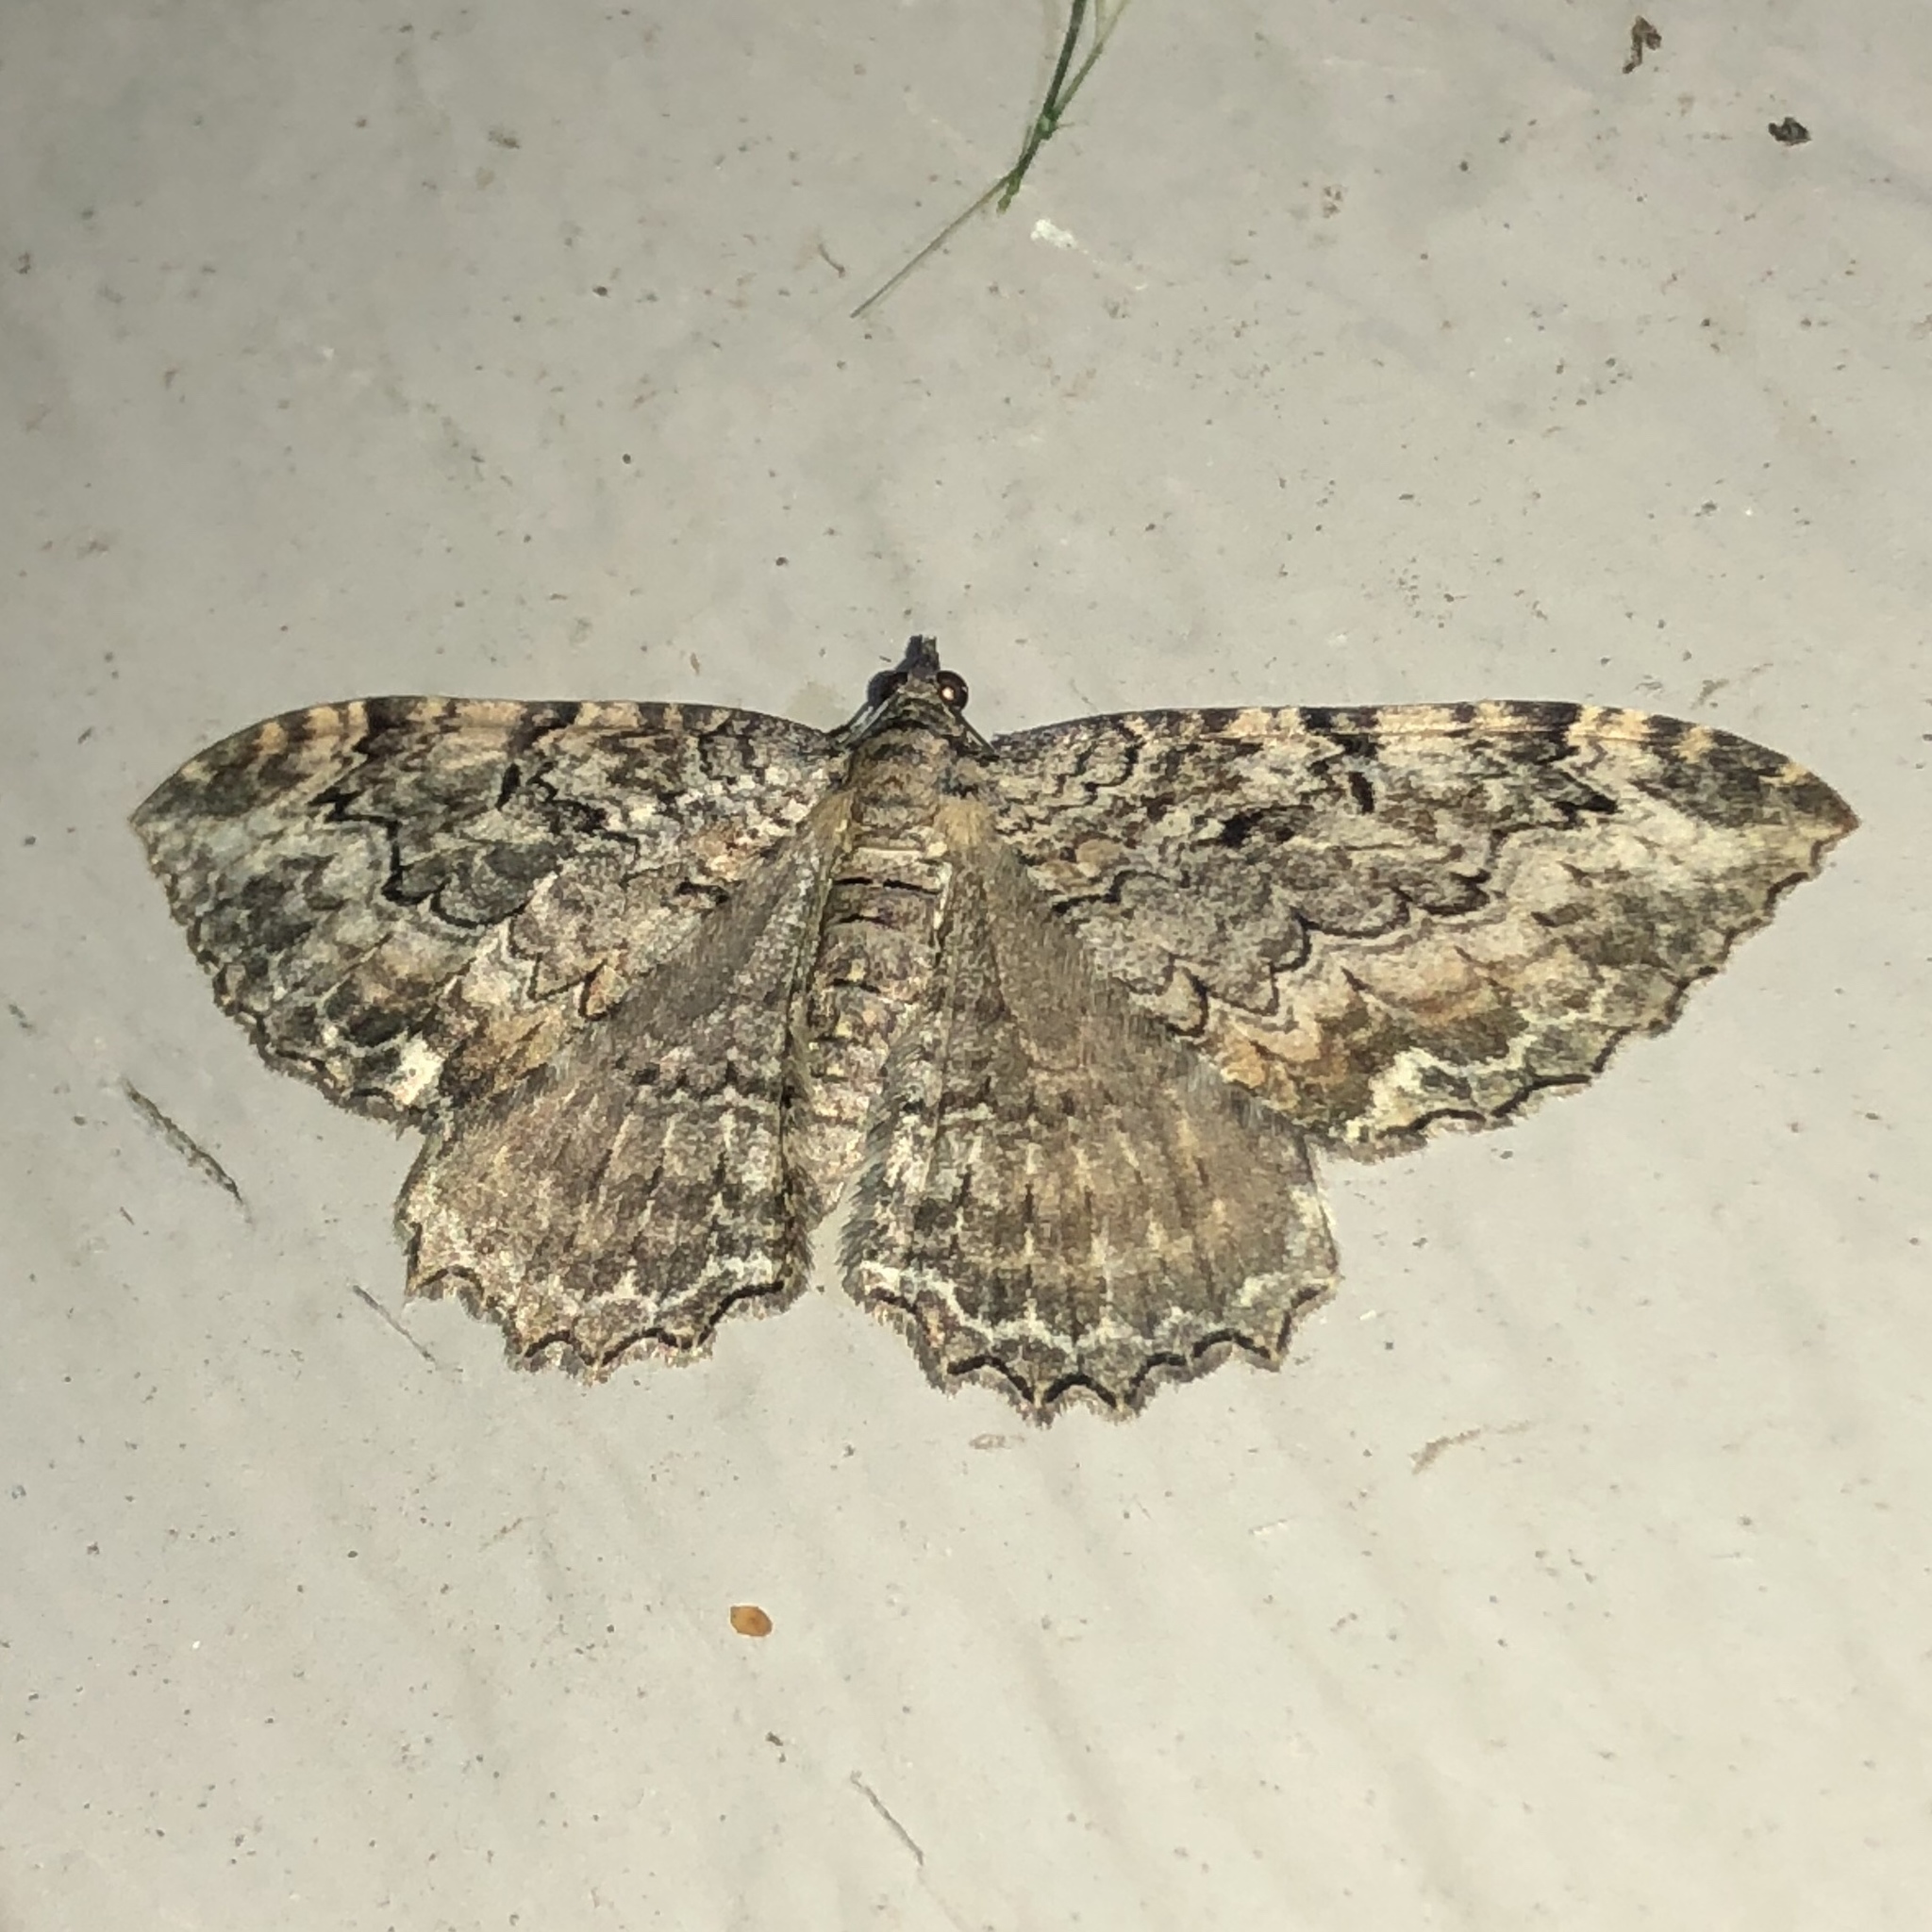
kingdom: Animalia
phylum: Arthropoda
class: Insecta
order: Lepidoptera
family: Geometridae
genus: Rheumaptera
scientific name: Rheumaptera
